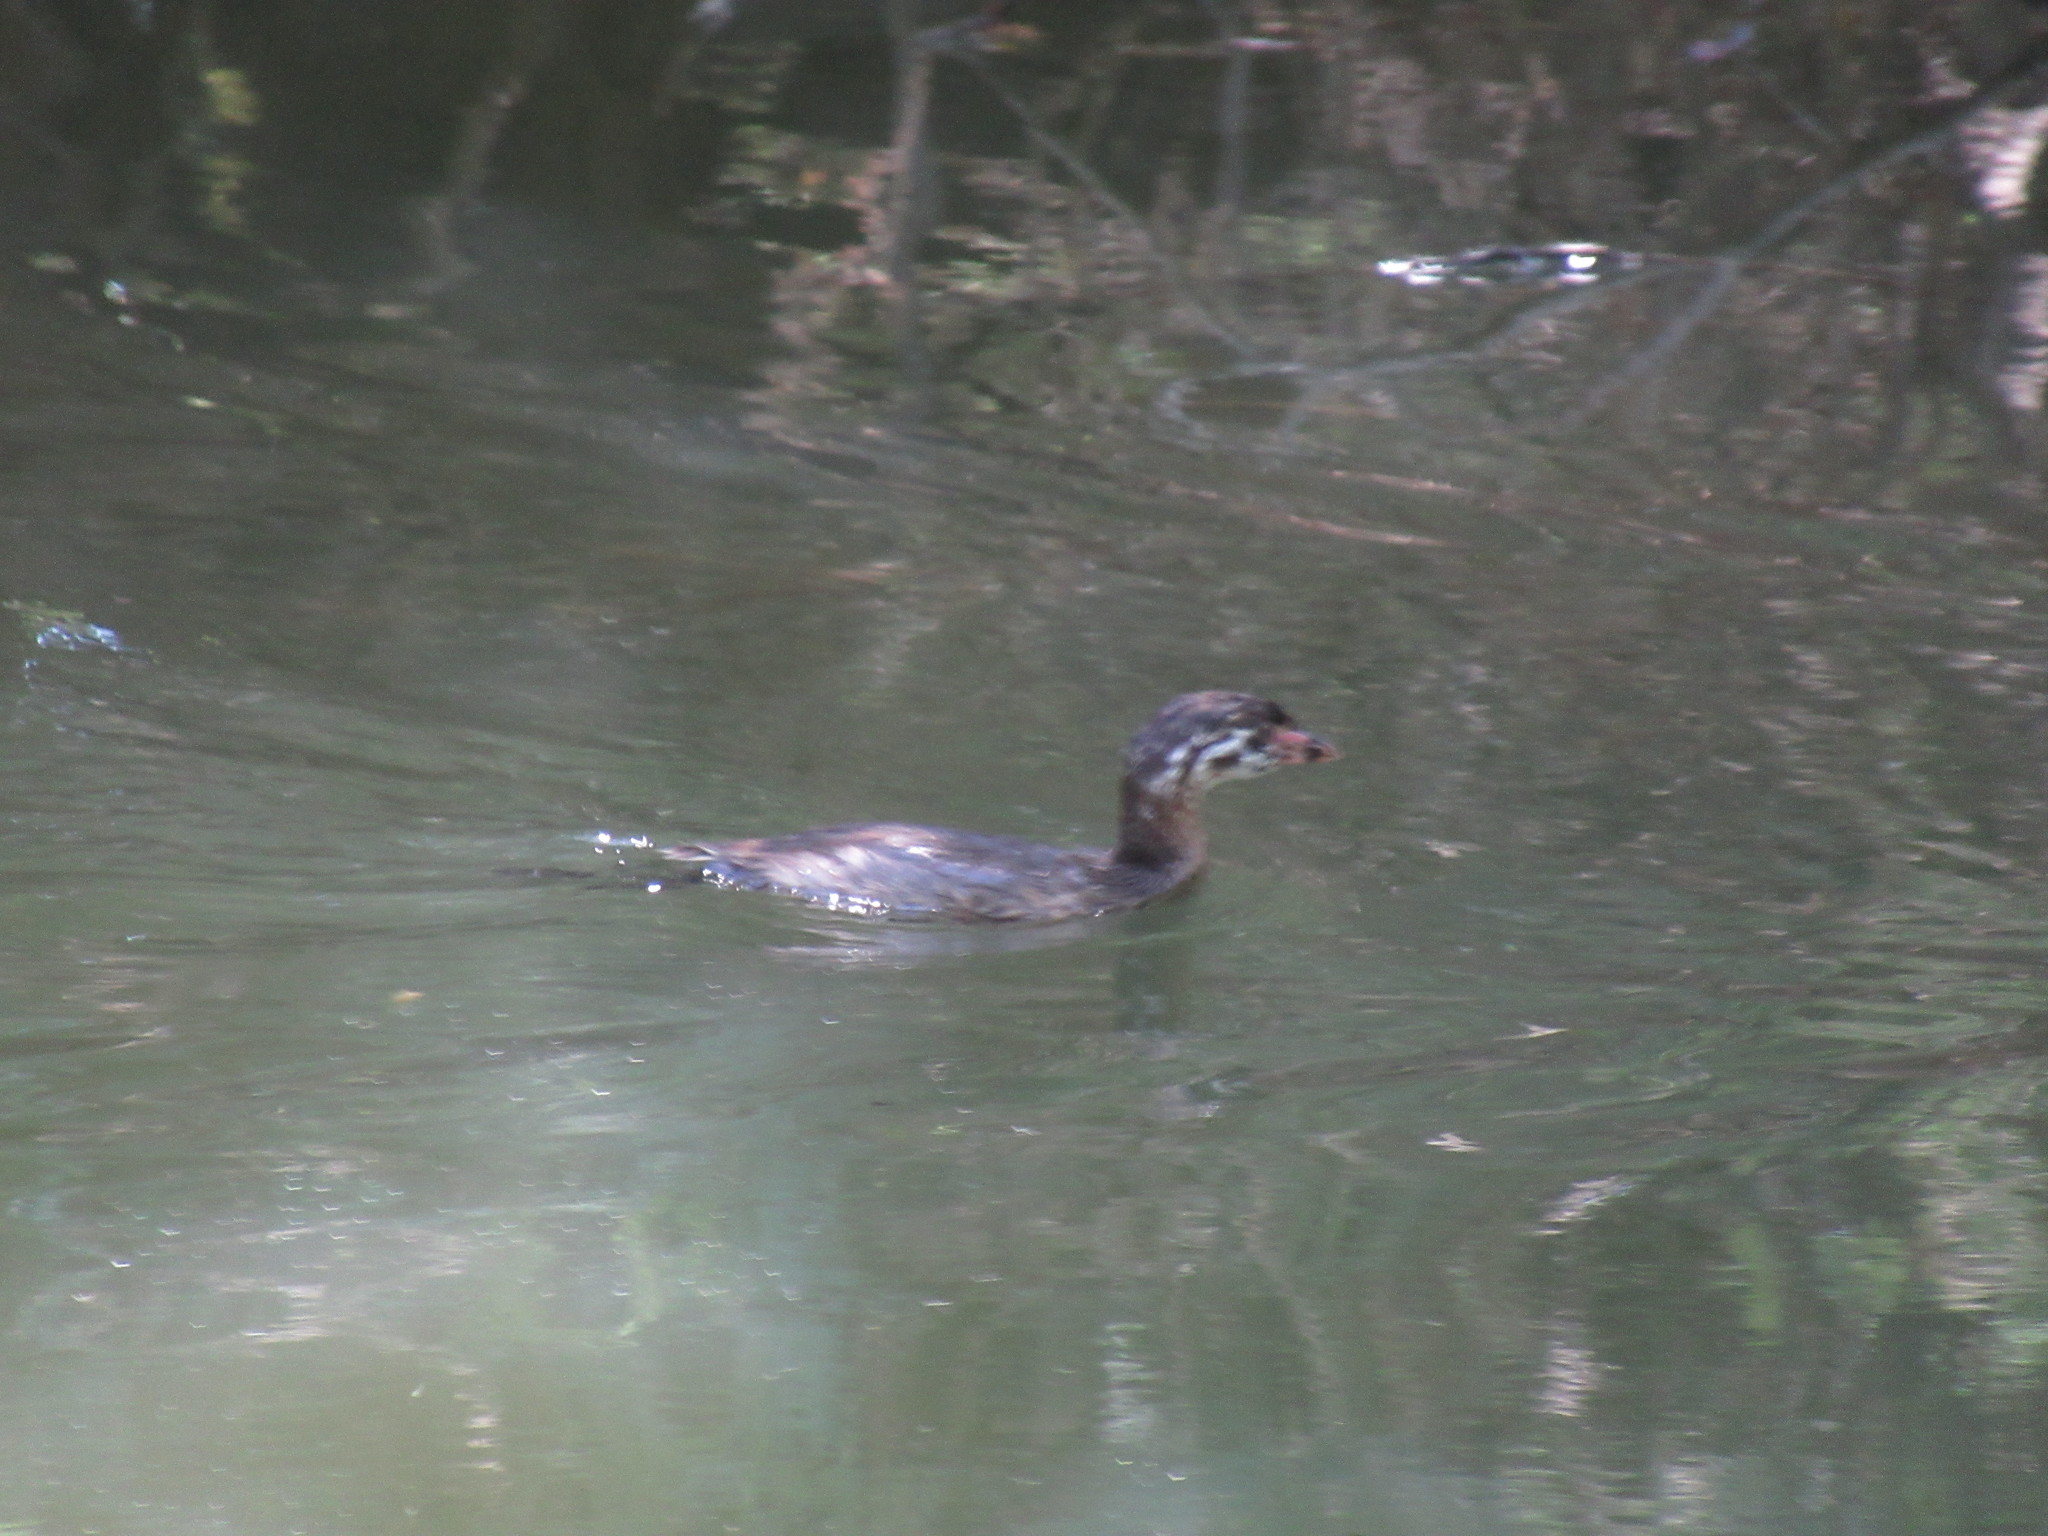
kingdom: Animalia
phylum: Chordata
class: Aves
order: Podicipediformes
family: Podicipedidae
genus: Podilymbus
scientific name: Podilymbus podiceps
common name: Pied-billed grebe
